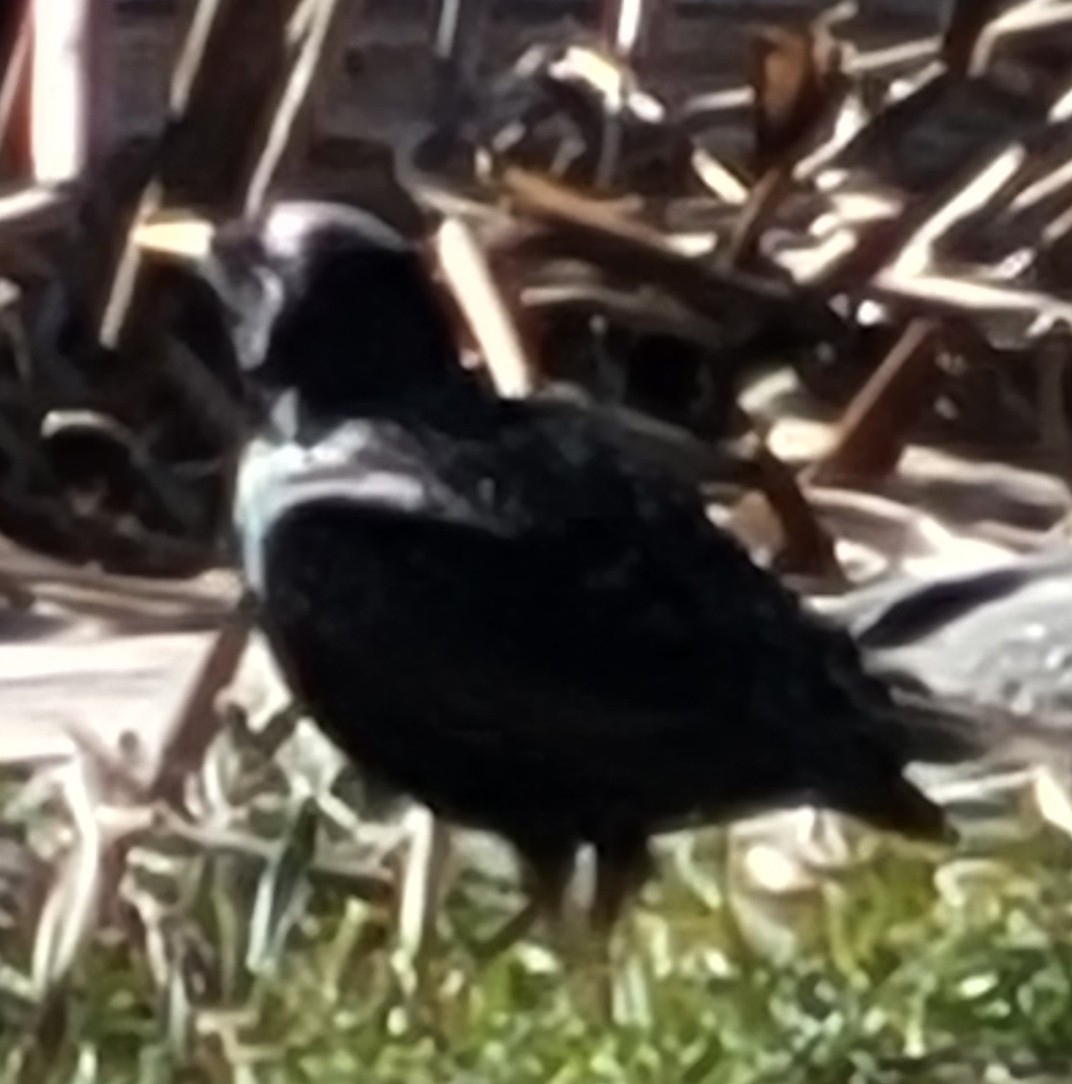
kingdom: Animalia
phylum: Chordata
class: Aves
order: Passeriformes
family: Sturnidae
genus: Sturnus
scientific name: Sturnus vulgaris
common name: Common starling
